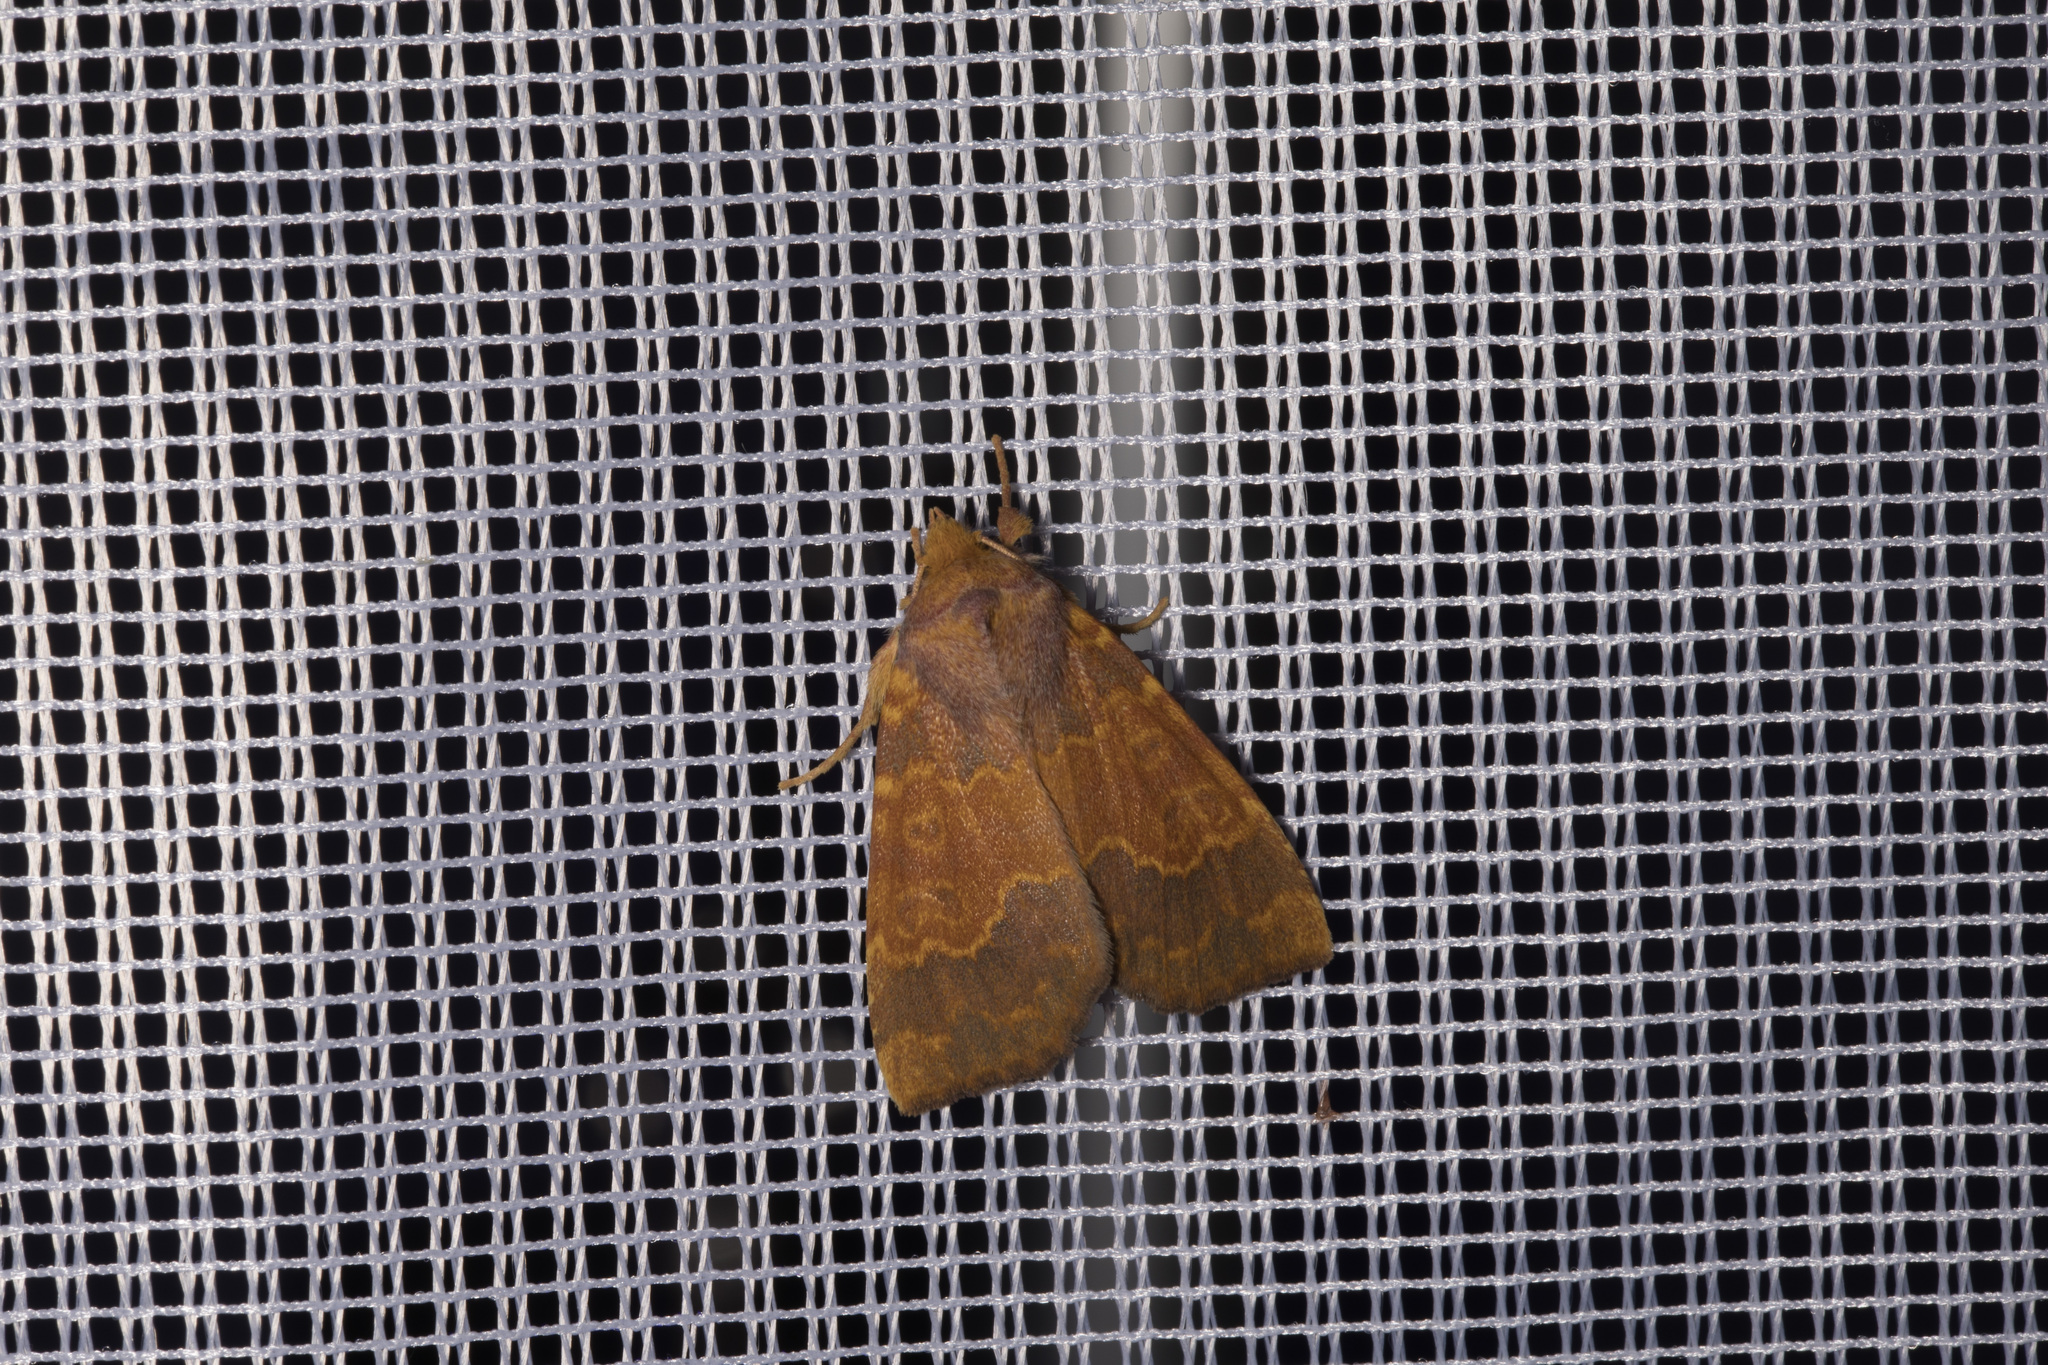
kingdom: Animalia
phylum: Arthropoda
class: Insecta
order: Lepidoptera
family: Noctuidae
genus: Tiliacea
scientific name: Tiliacea aurago
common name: Barred sallow
